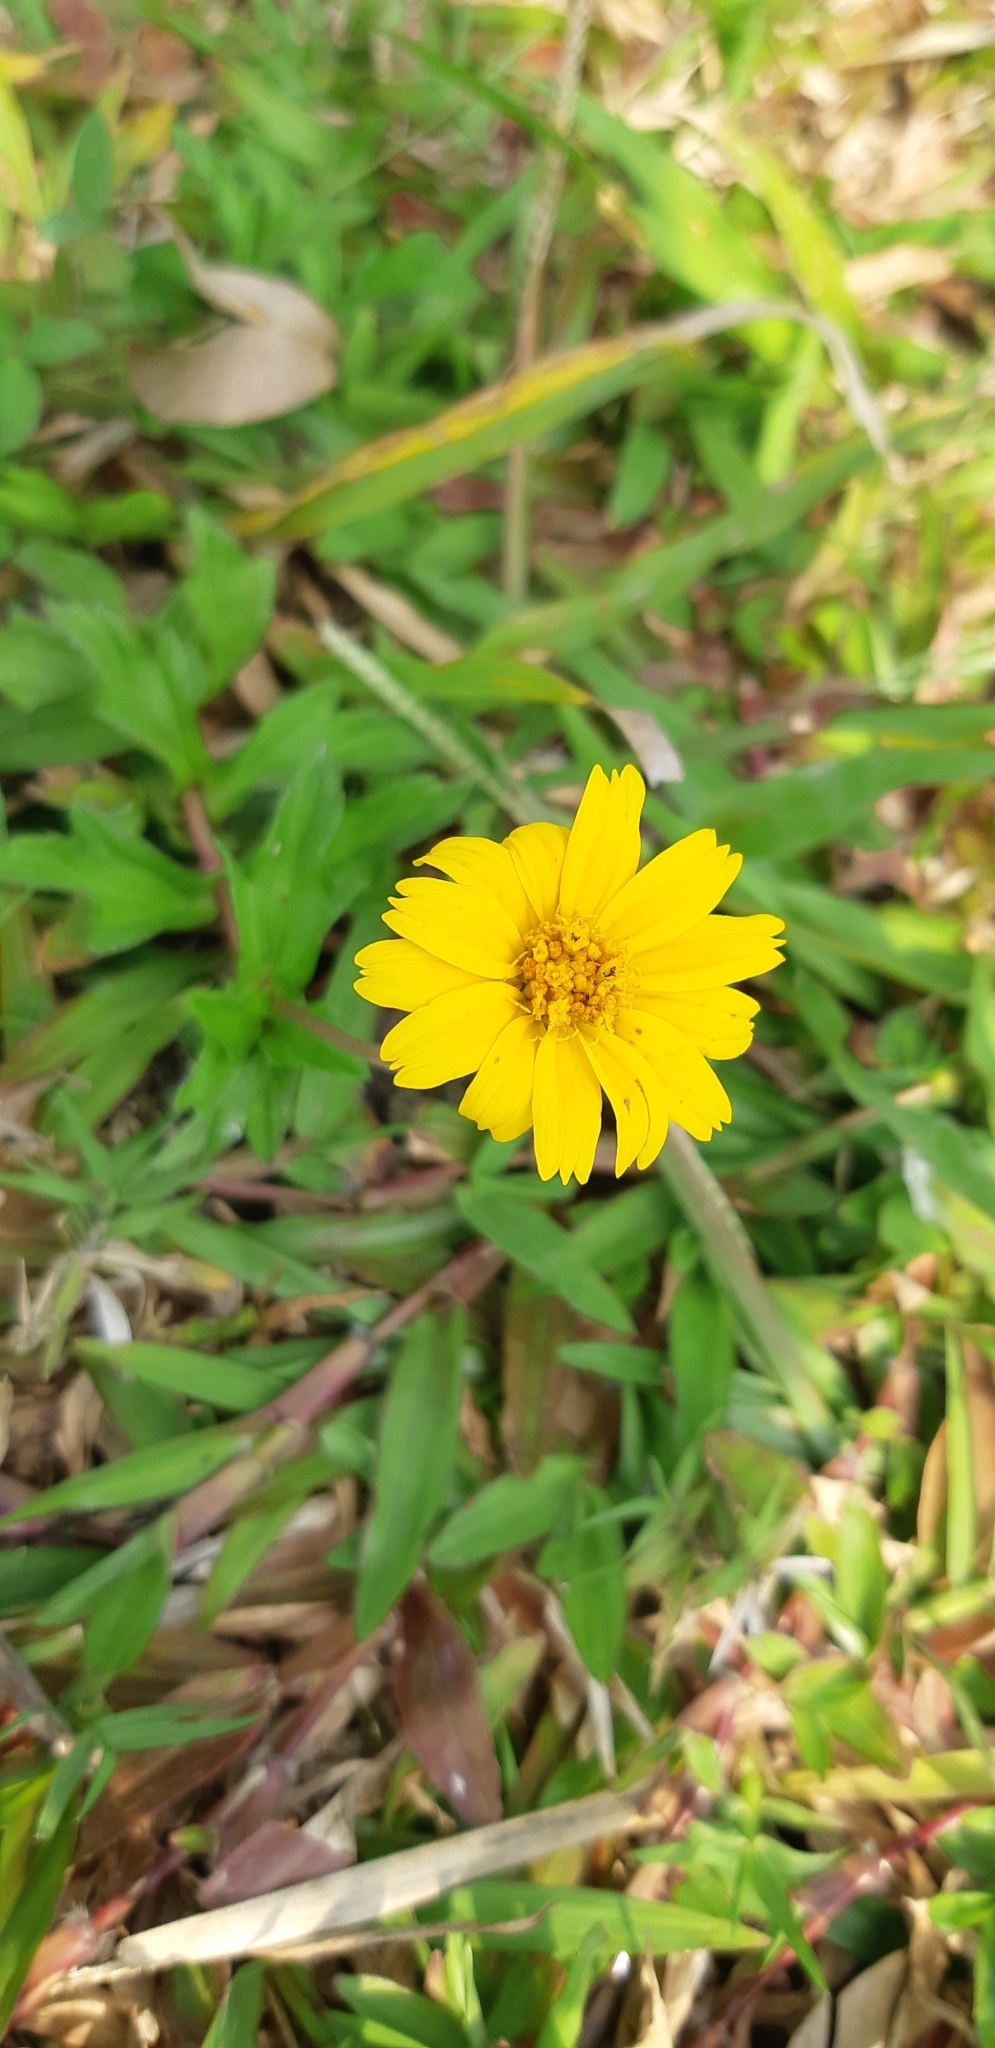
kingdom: Plantae
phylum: Tracheophyta
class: Magnoliopsida
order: Asterales
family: Asteraceae
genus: Sphagneticola
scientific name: Sphagneticola trilobata
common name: Bay biscayne creeping-oxeye
